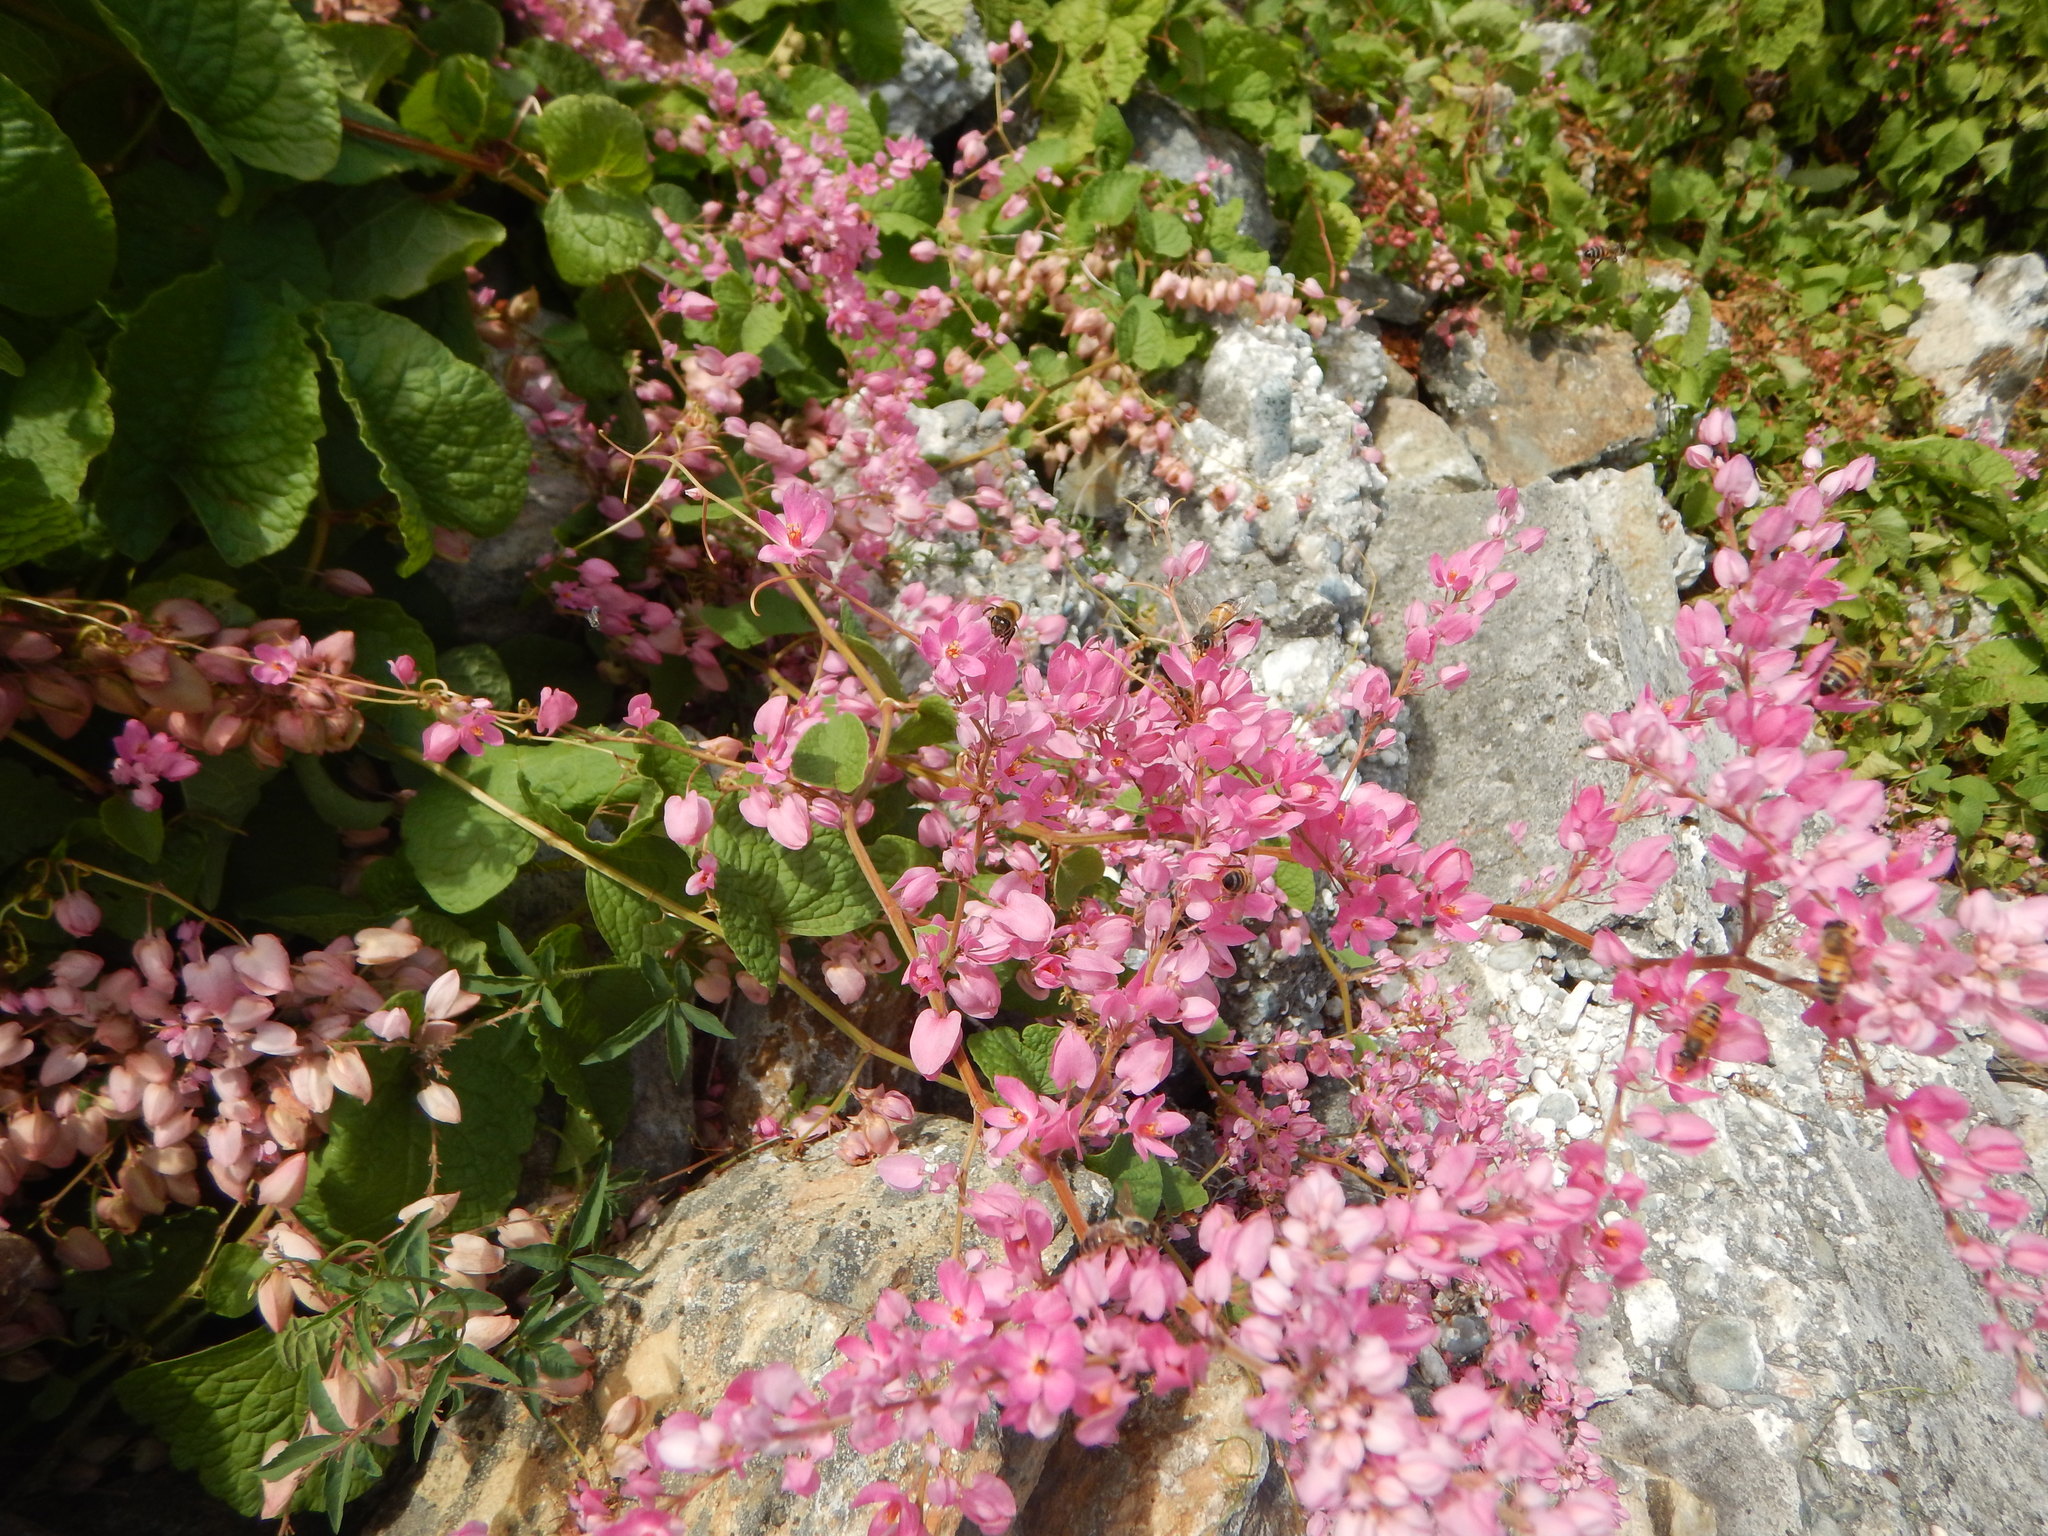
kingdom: Plantae
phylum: Tracheophyta
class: Magnoliopsida
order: Caryophyllales
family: Polygonaceae
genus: Antigonon
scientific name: Antigonon leptopus
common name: Coral vine
